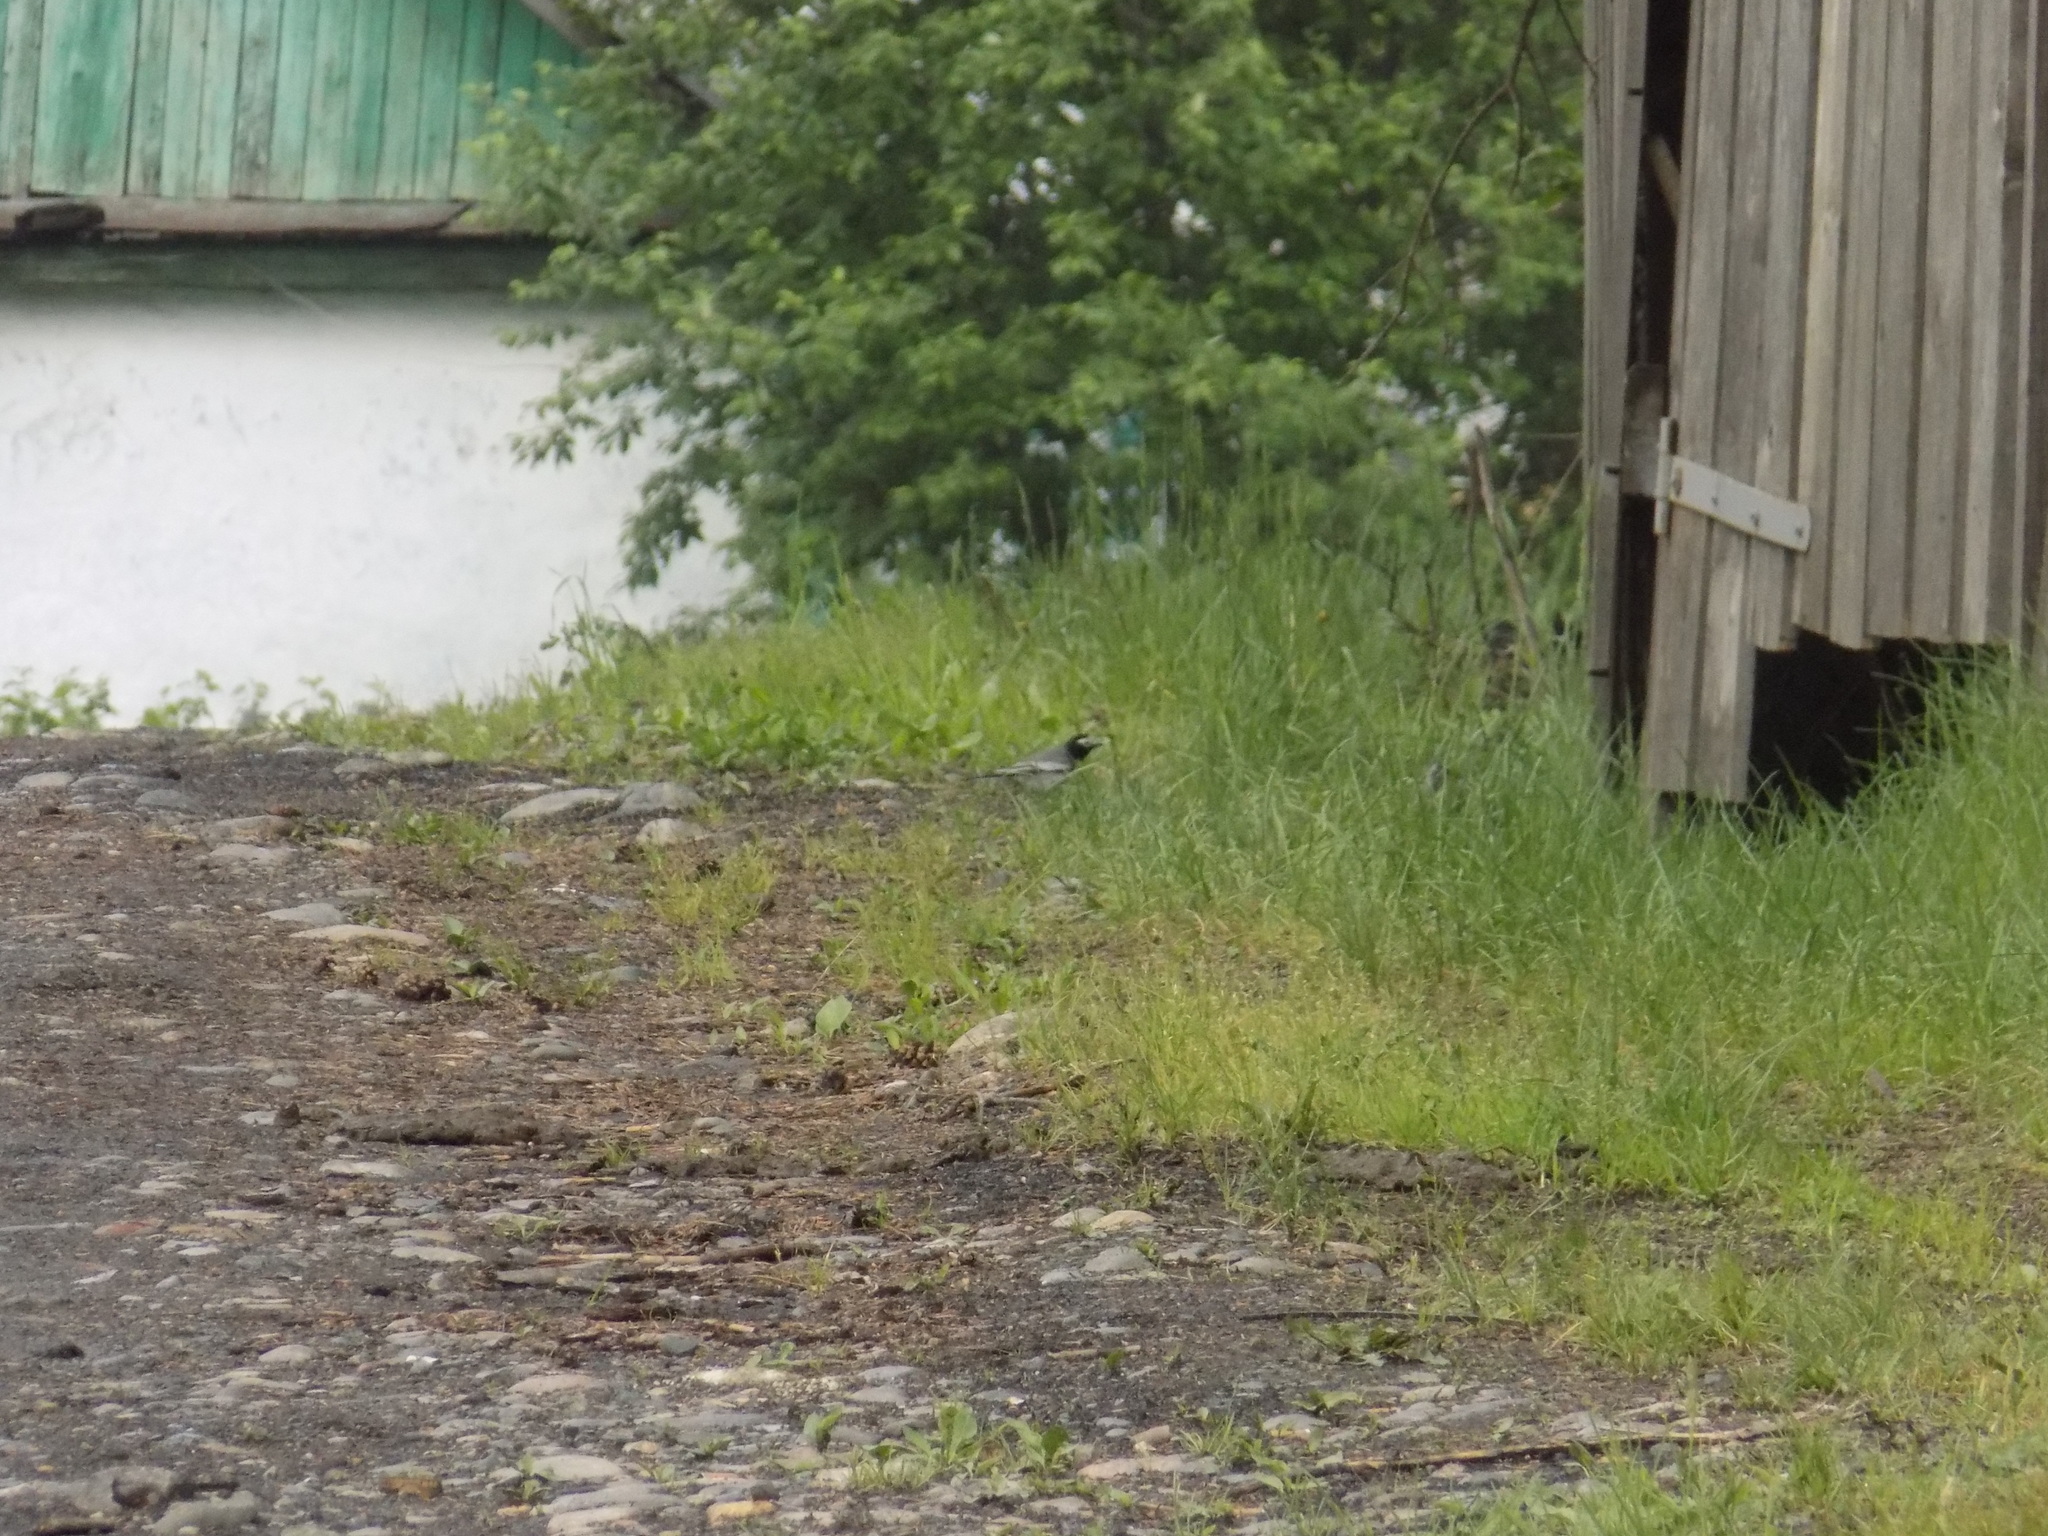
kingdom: Animalia
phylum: Chordata
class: Aves
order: Passeriformes
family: Motacillidae
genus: Motacilla
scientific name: Motacilla alba
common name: White wagtail
